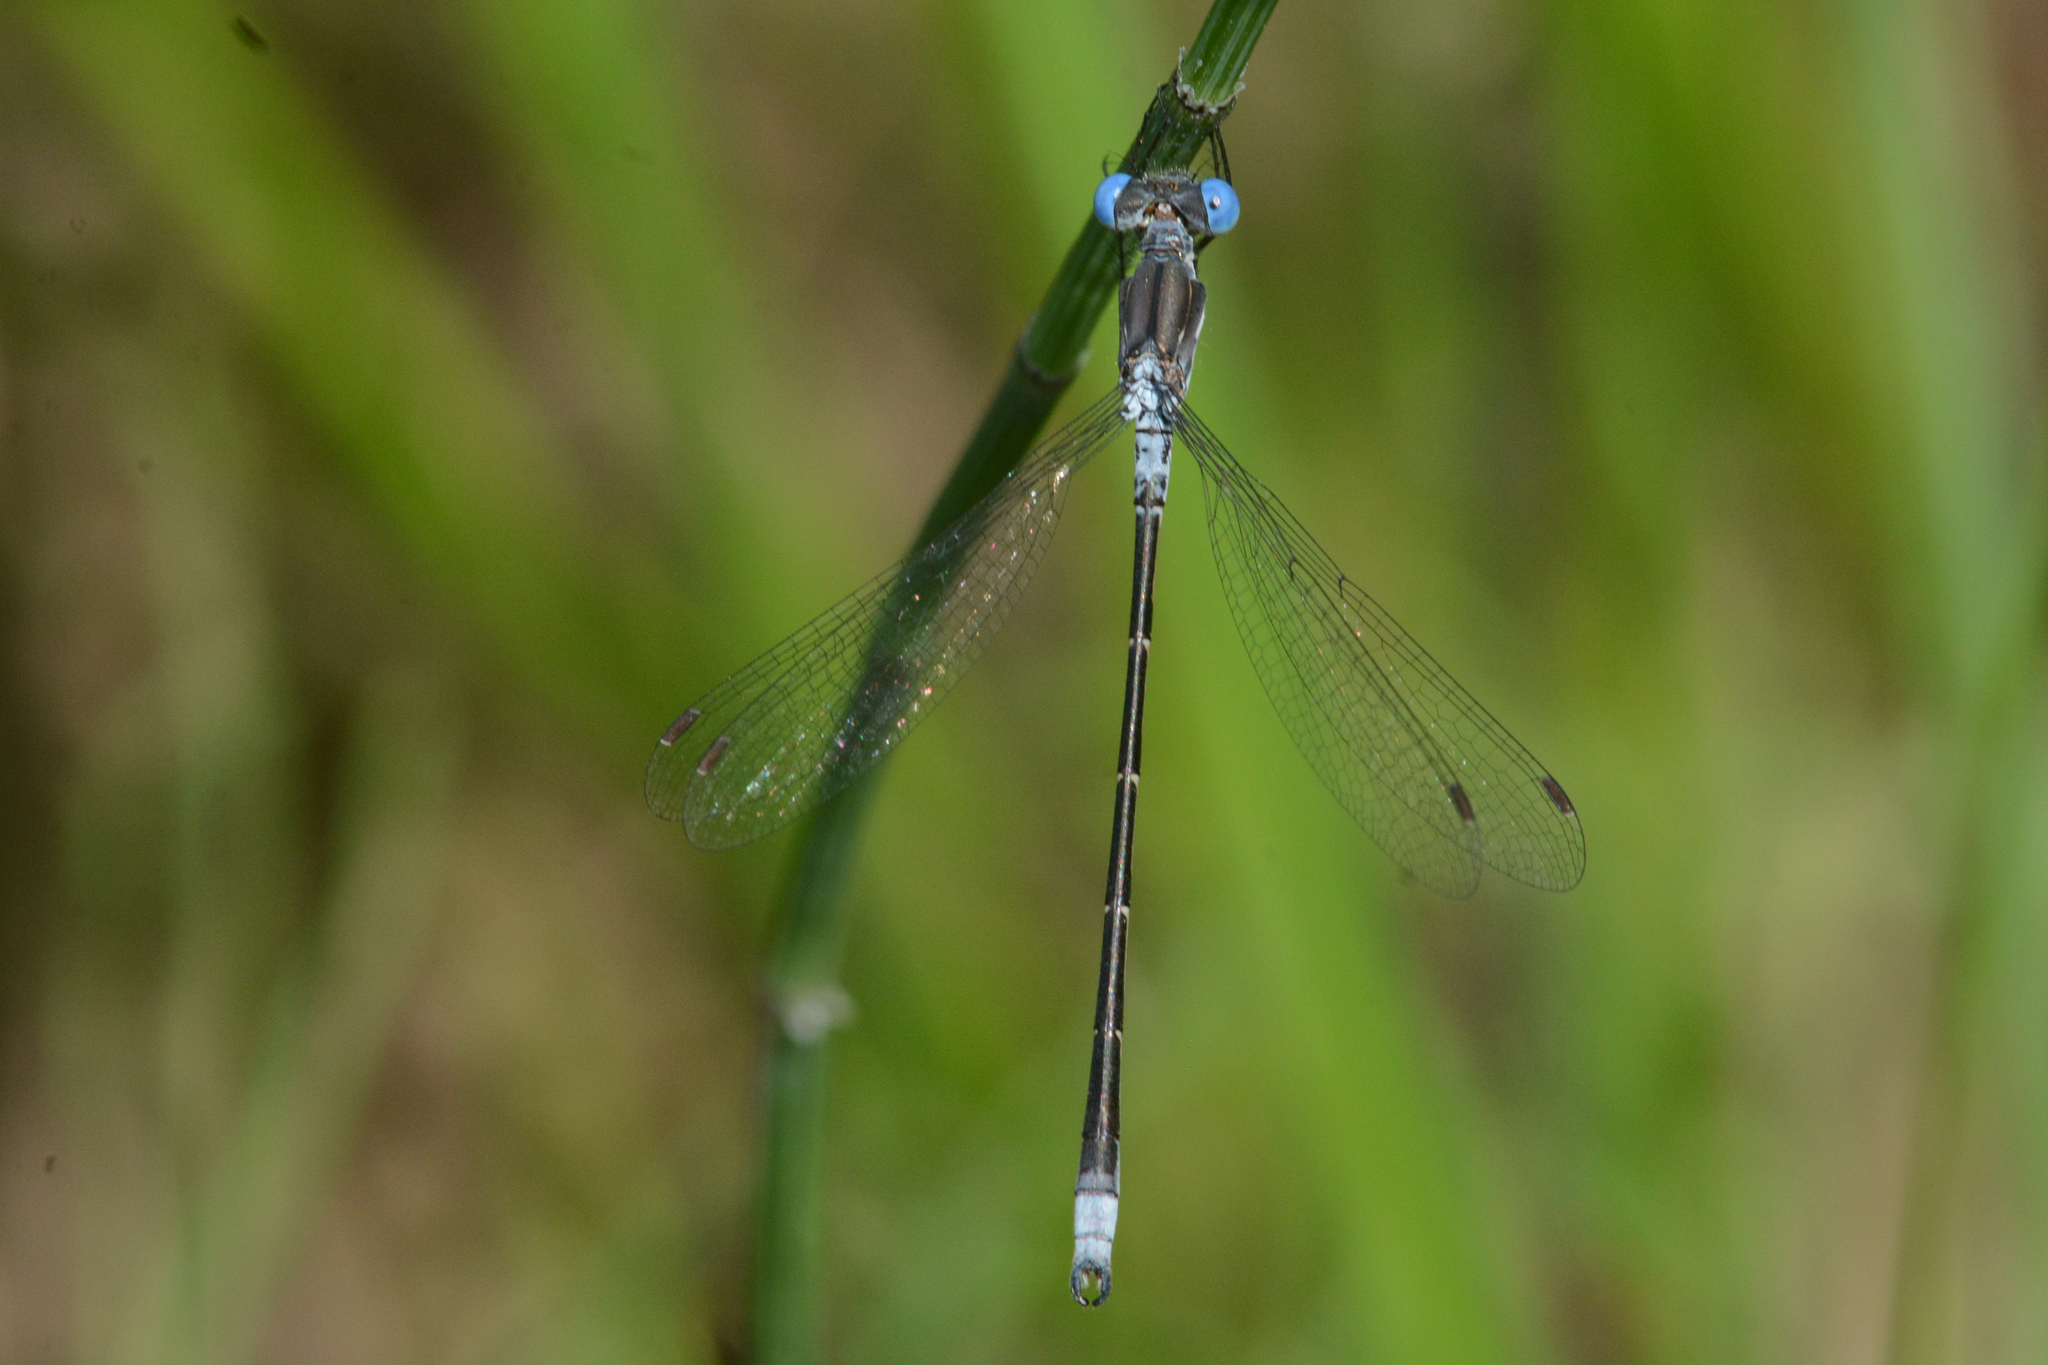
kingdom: Animalia
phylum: Arthropoda
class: Insecta
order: Odonata
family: Lestidae
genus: Lestes
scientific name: Lestes congener
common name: Spotted spreadwing
